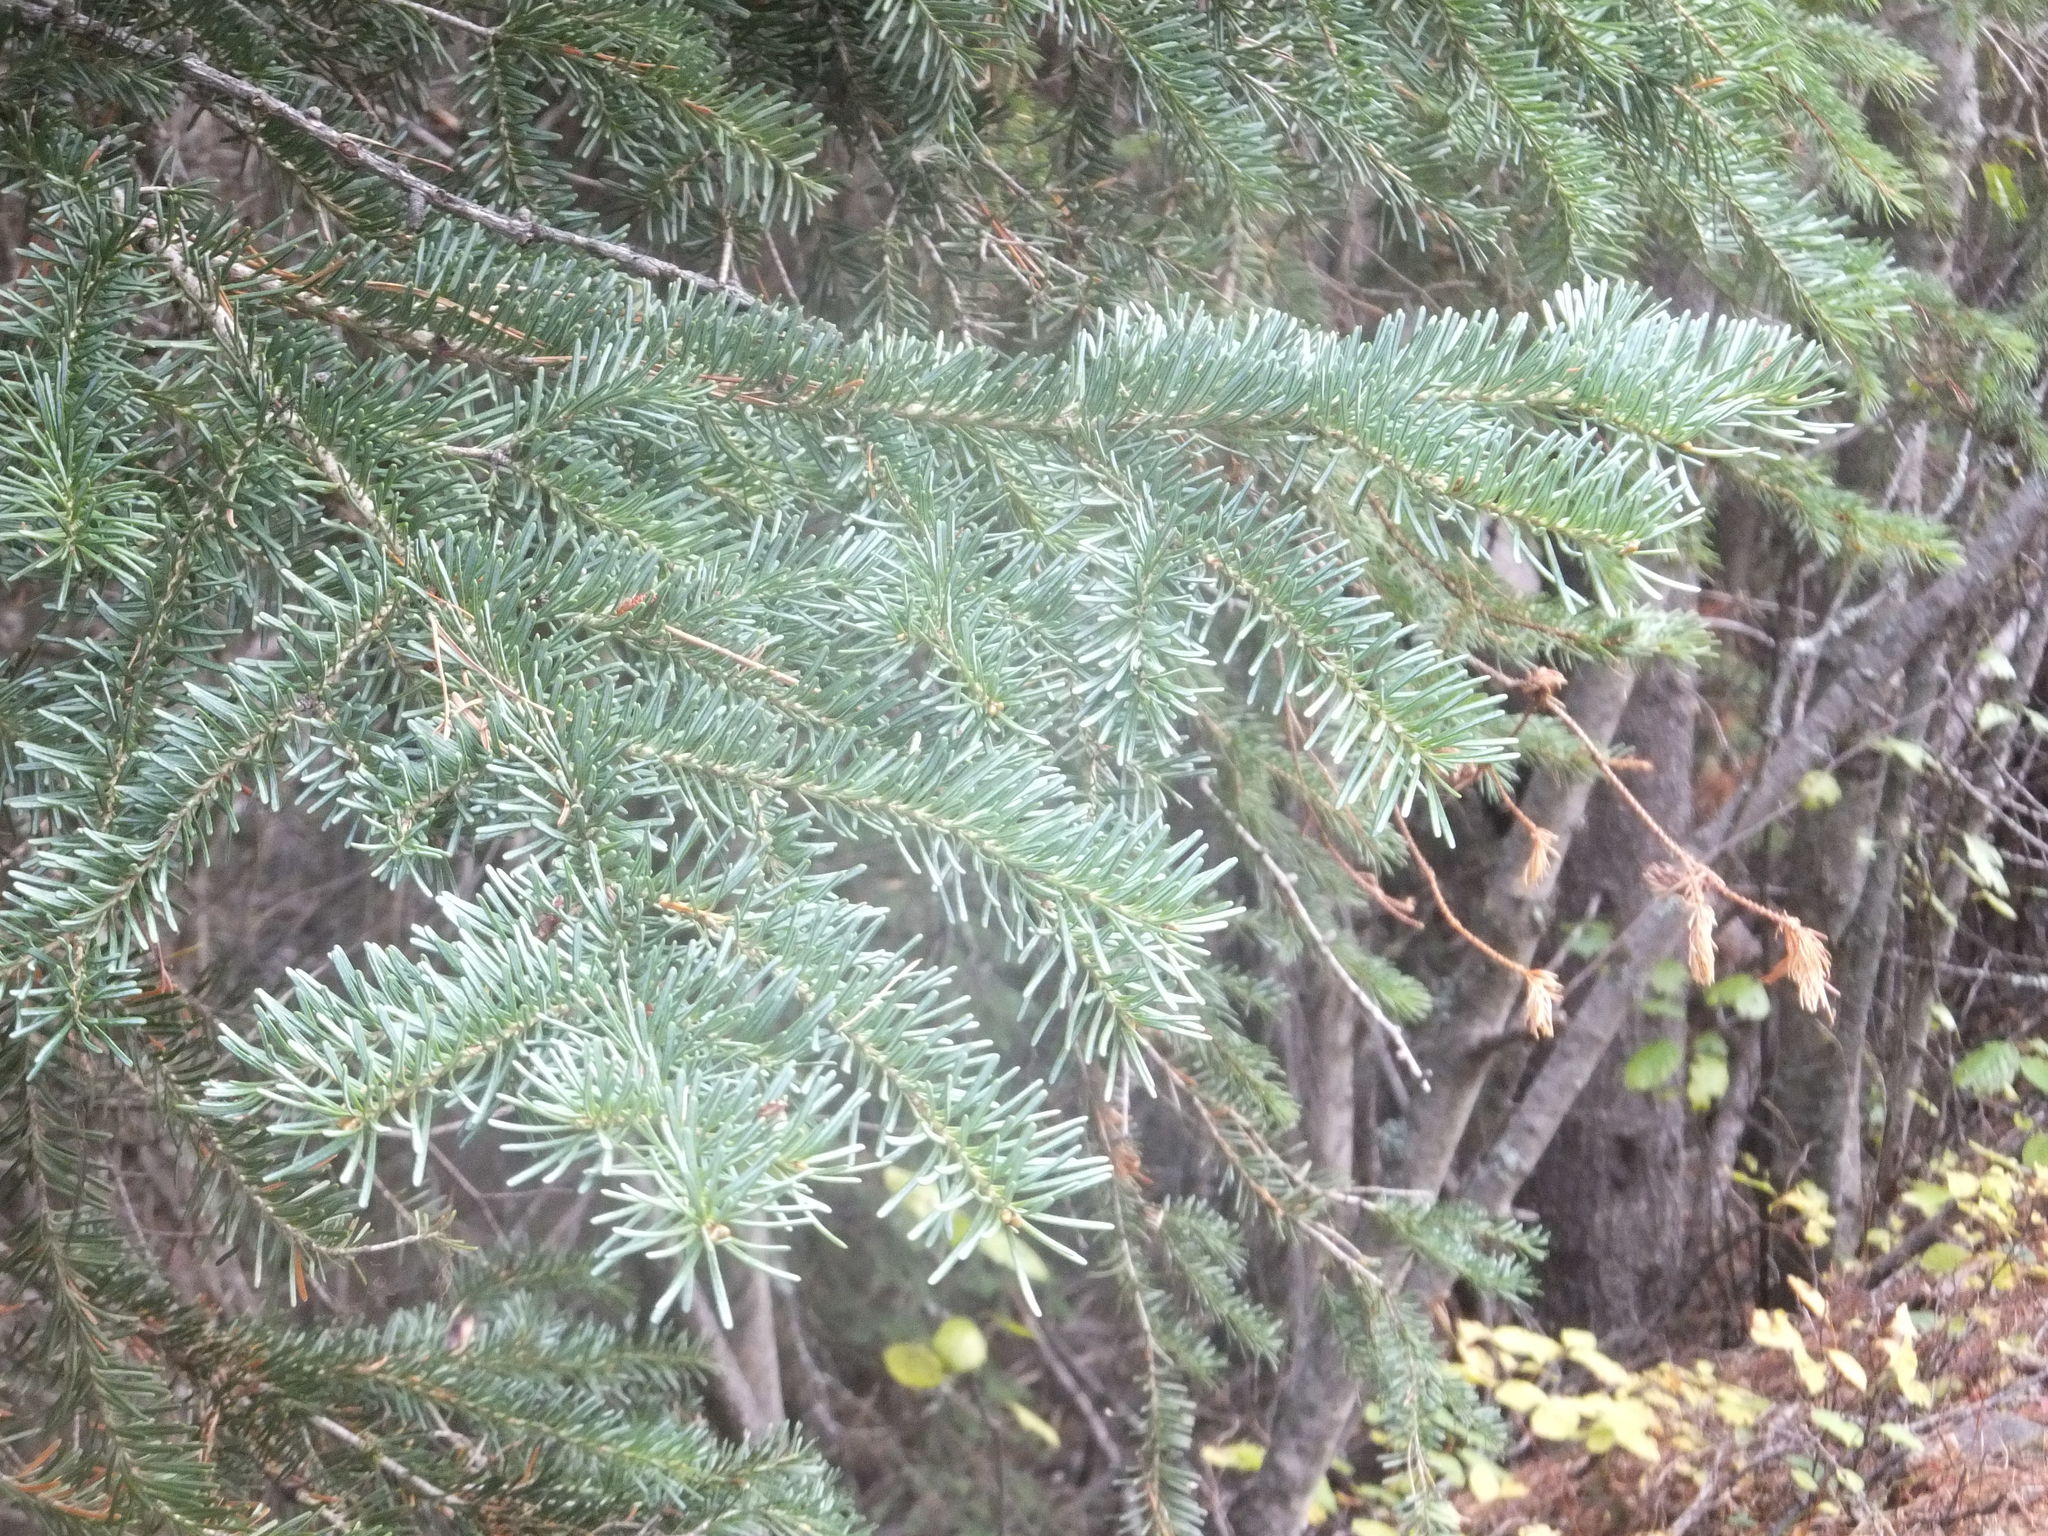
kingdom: Plantae
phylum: Tracheophyta
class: Pinopsida
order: Pinales
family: Pinaceae
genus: Abies
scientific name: Abies lasiocarpa
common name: Subalpine fir
